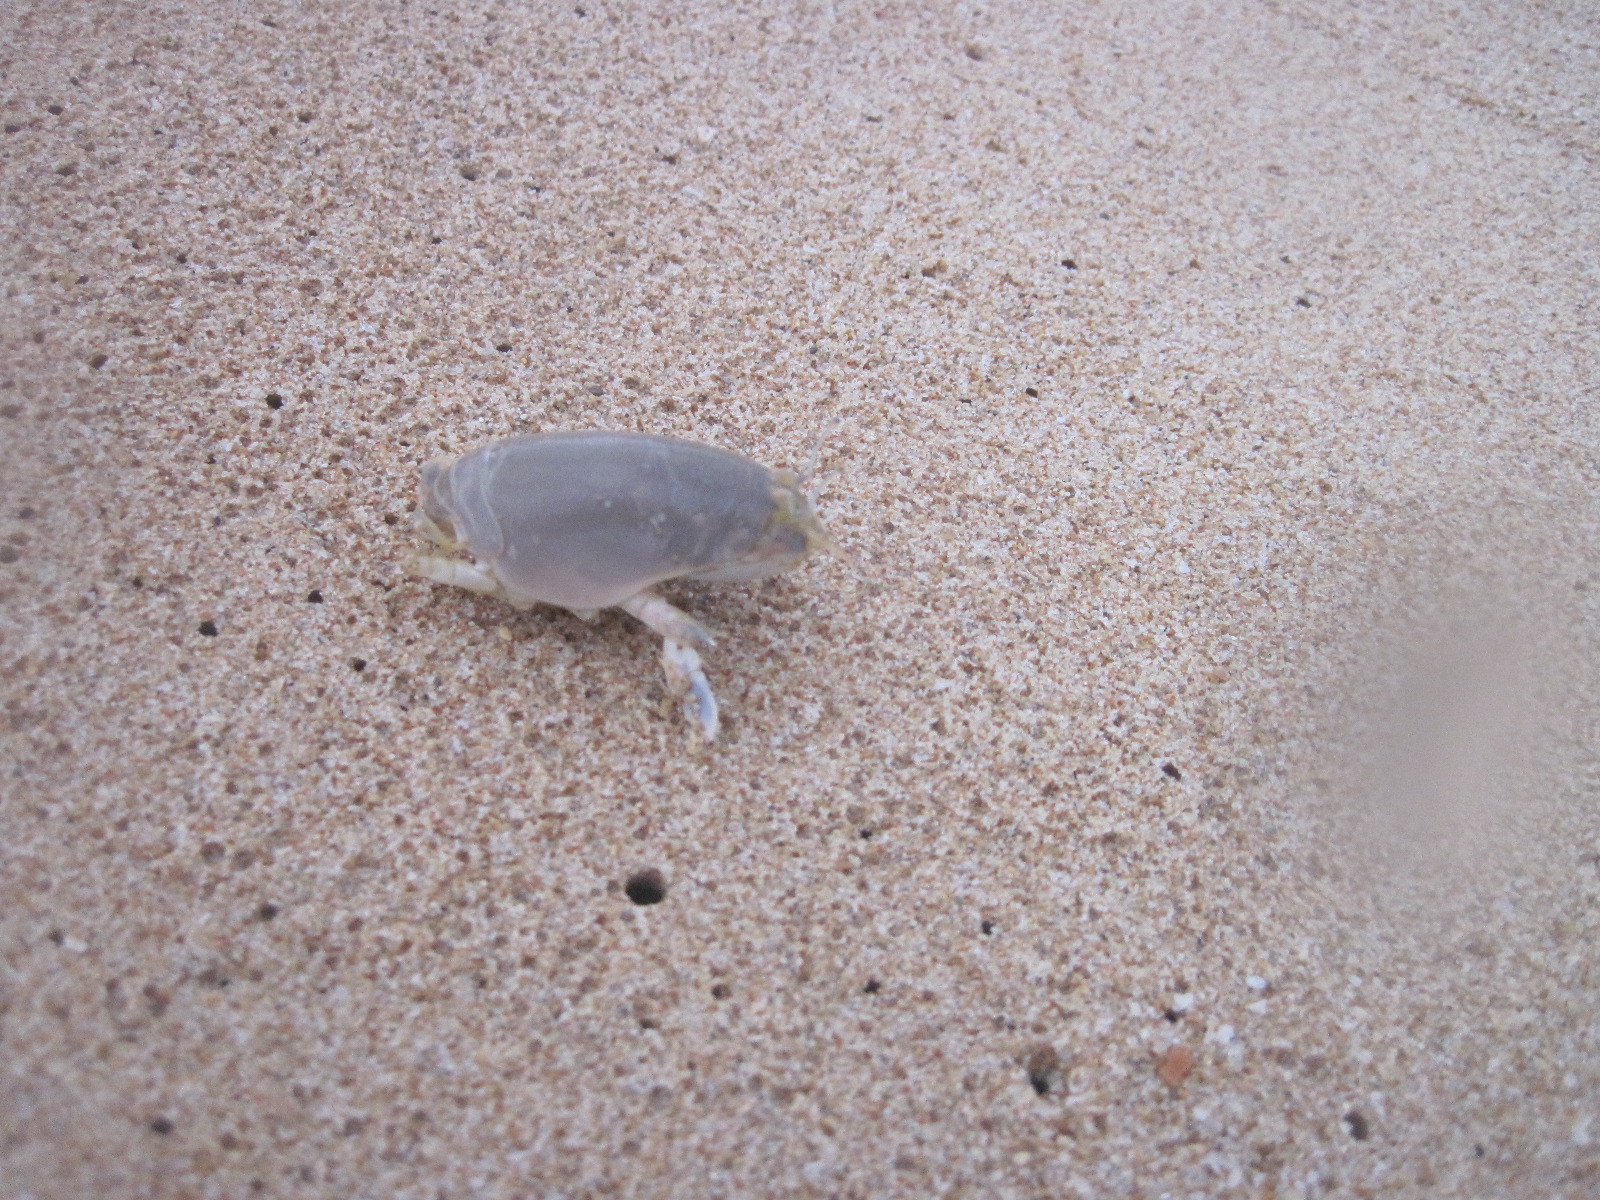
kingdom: Animalia
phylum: Arthropoda
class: Malacostraca
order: Decapoda
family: Hippidae
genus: Emerita
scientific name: Emerita emeritus
